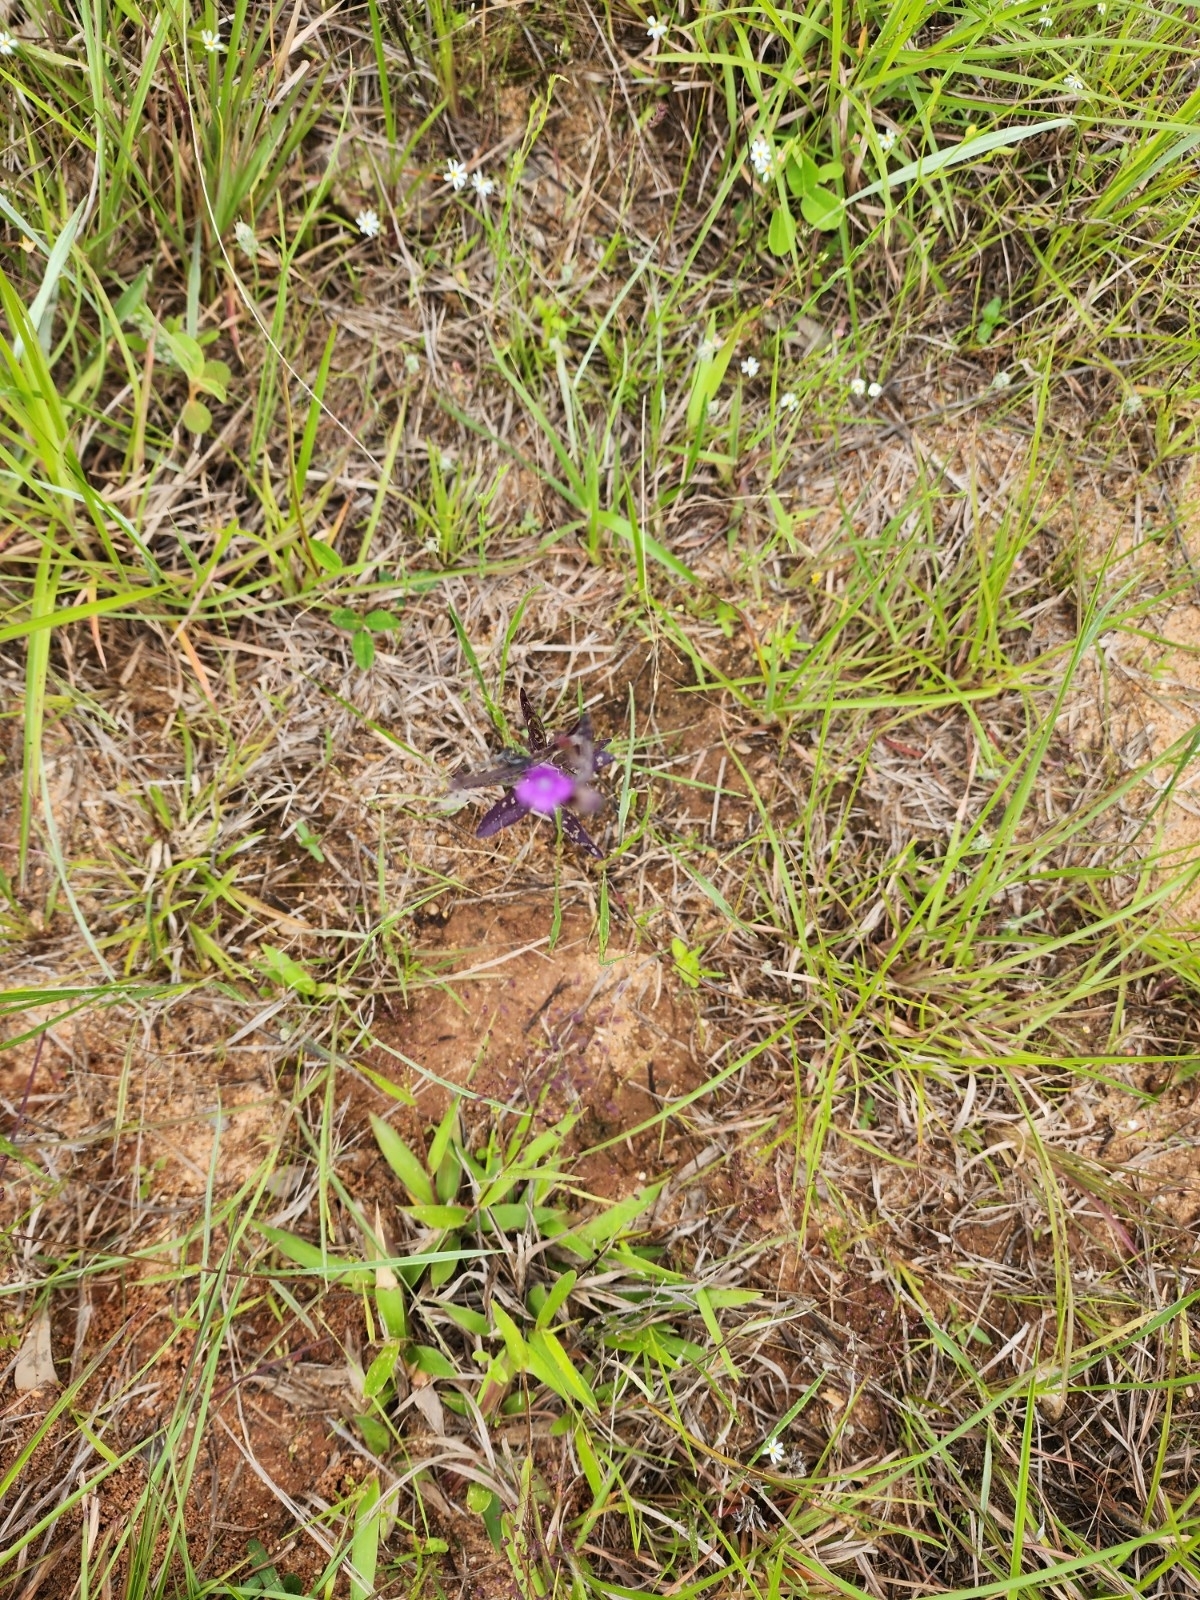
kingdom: Plantae
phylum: Tracheophyta
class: Magnoliopsida
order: Lamiales
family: Orobanchaceae
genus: Buchnera
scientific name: Buchnera floridana
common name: Florida bluehearts
